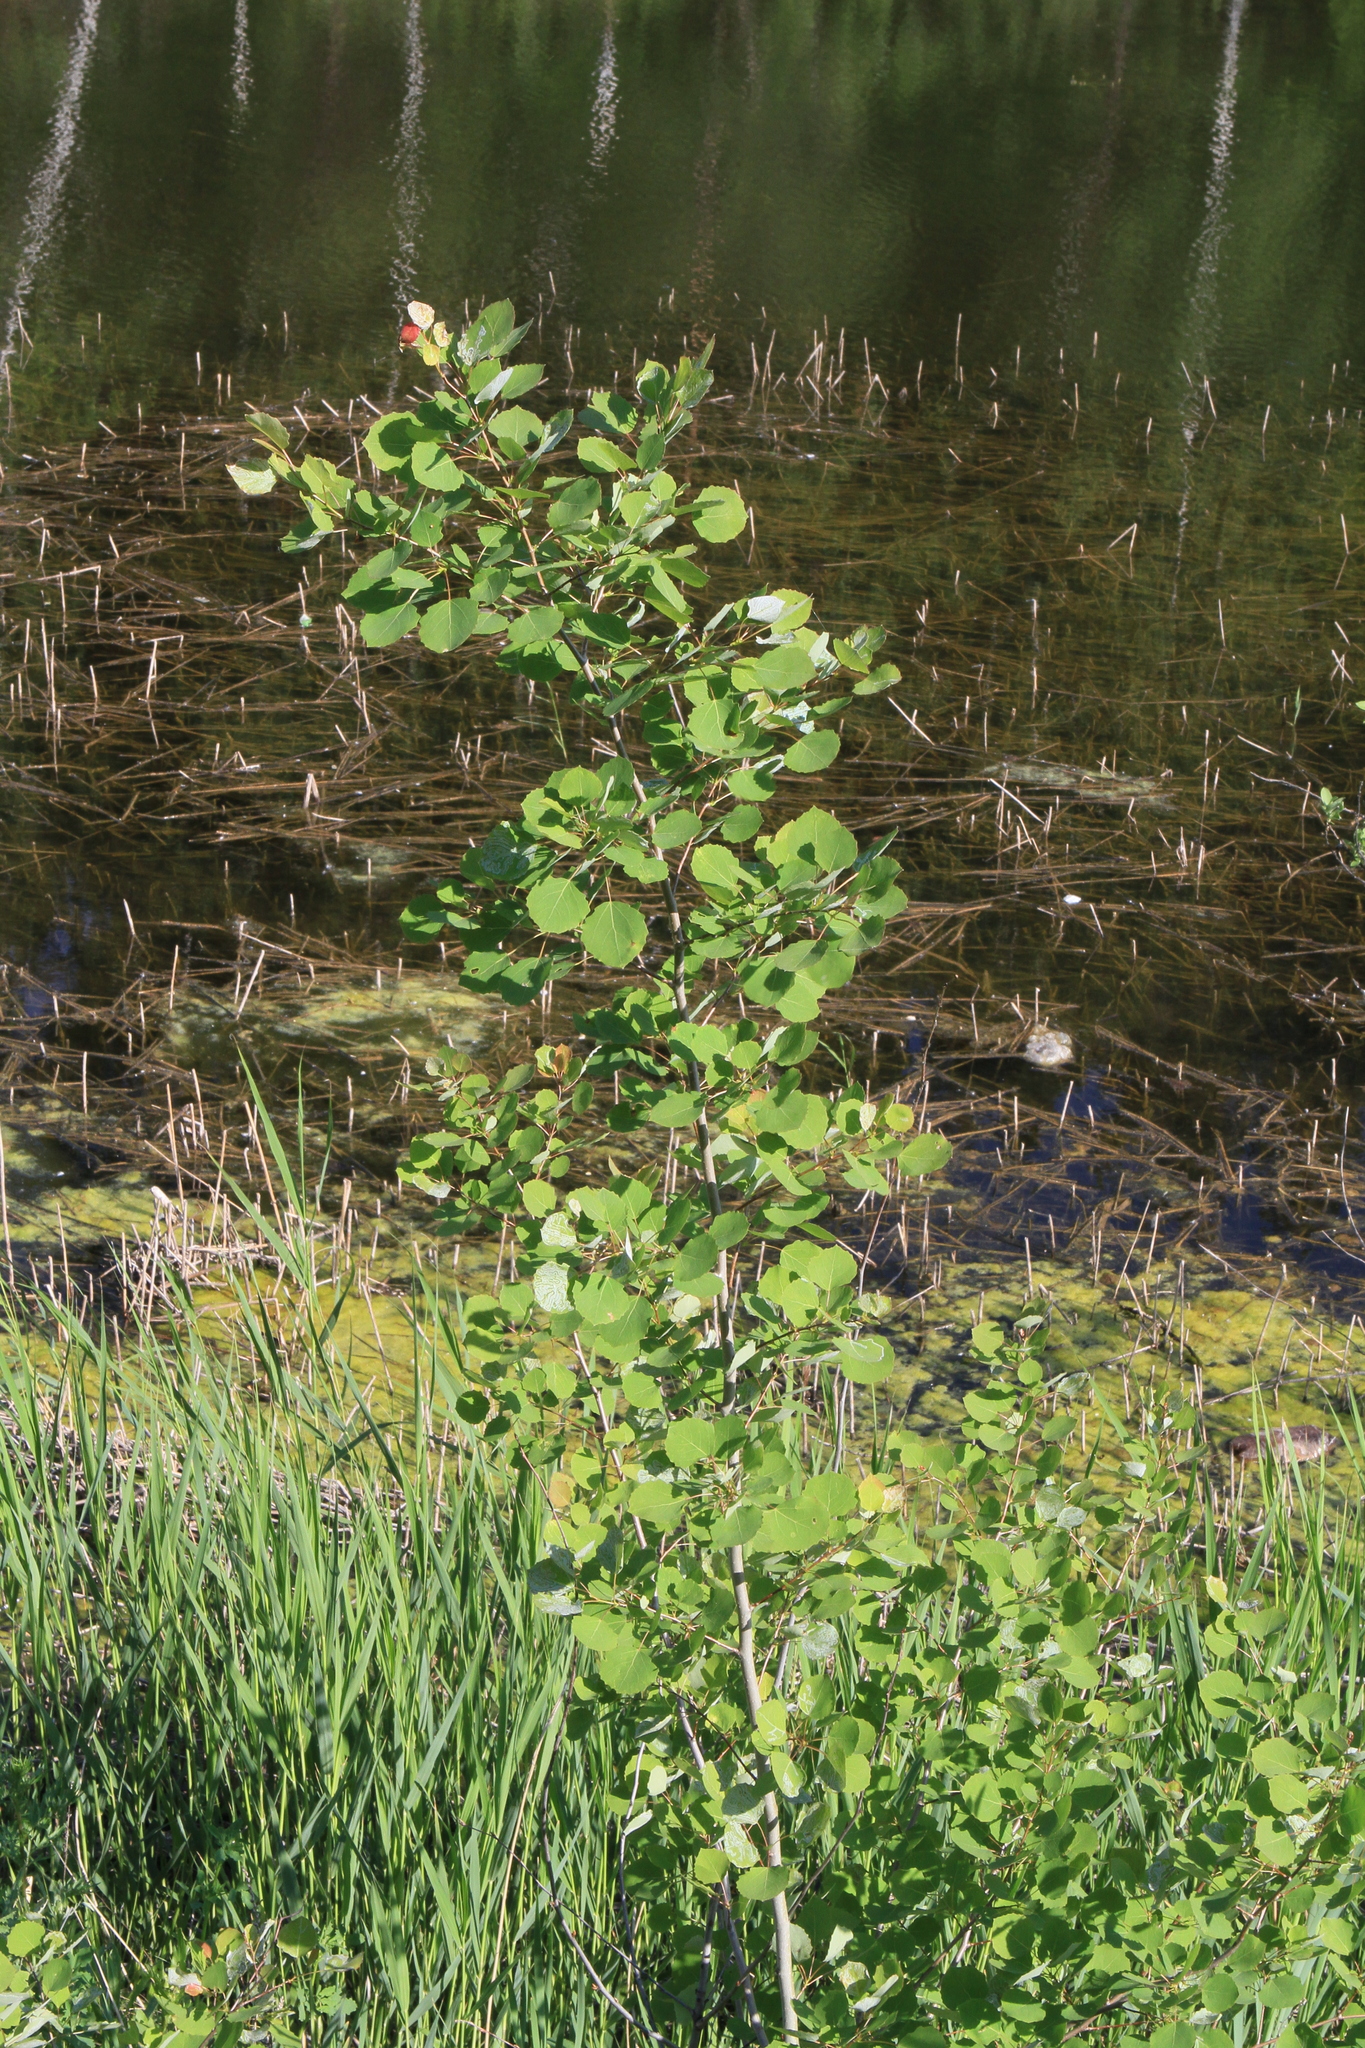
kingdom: Plantae
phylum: Tracheophyta
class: Magnoliopsida
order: Malpighiales
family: Salicaceae
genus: Populus
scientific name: Populus tremula
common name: European aspen
